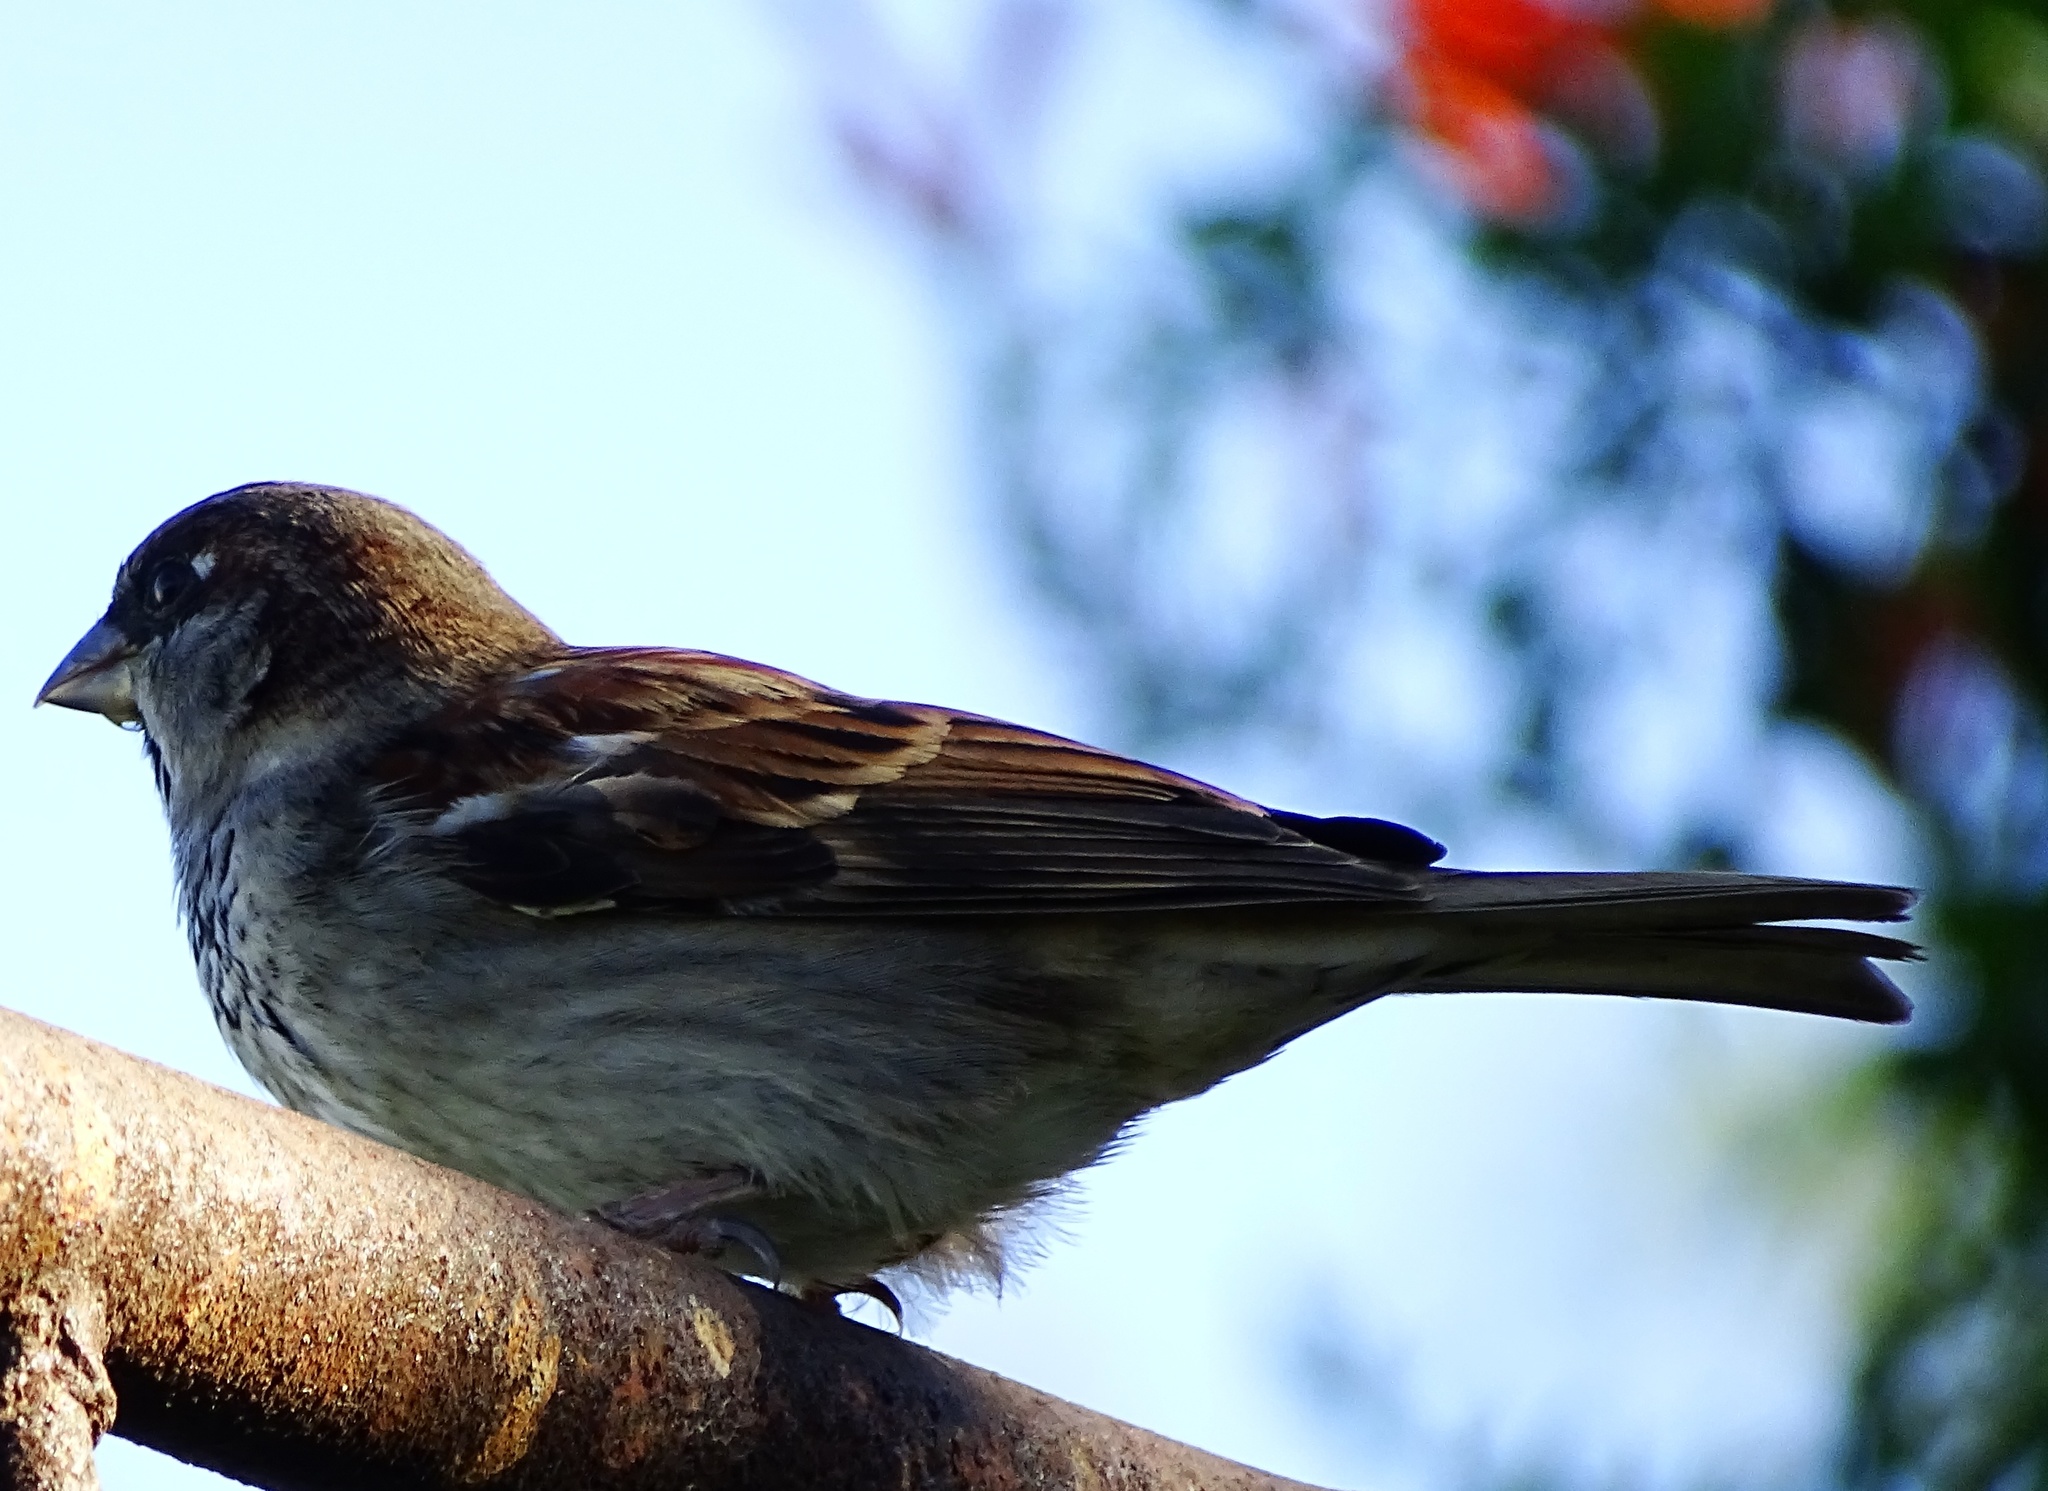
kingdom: Animalia
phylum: Chordata
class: Aves
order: Passeriformes
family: Passeridae
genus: Passer
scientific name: Passer domesticus
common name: House sparrow
